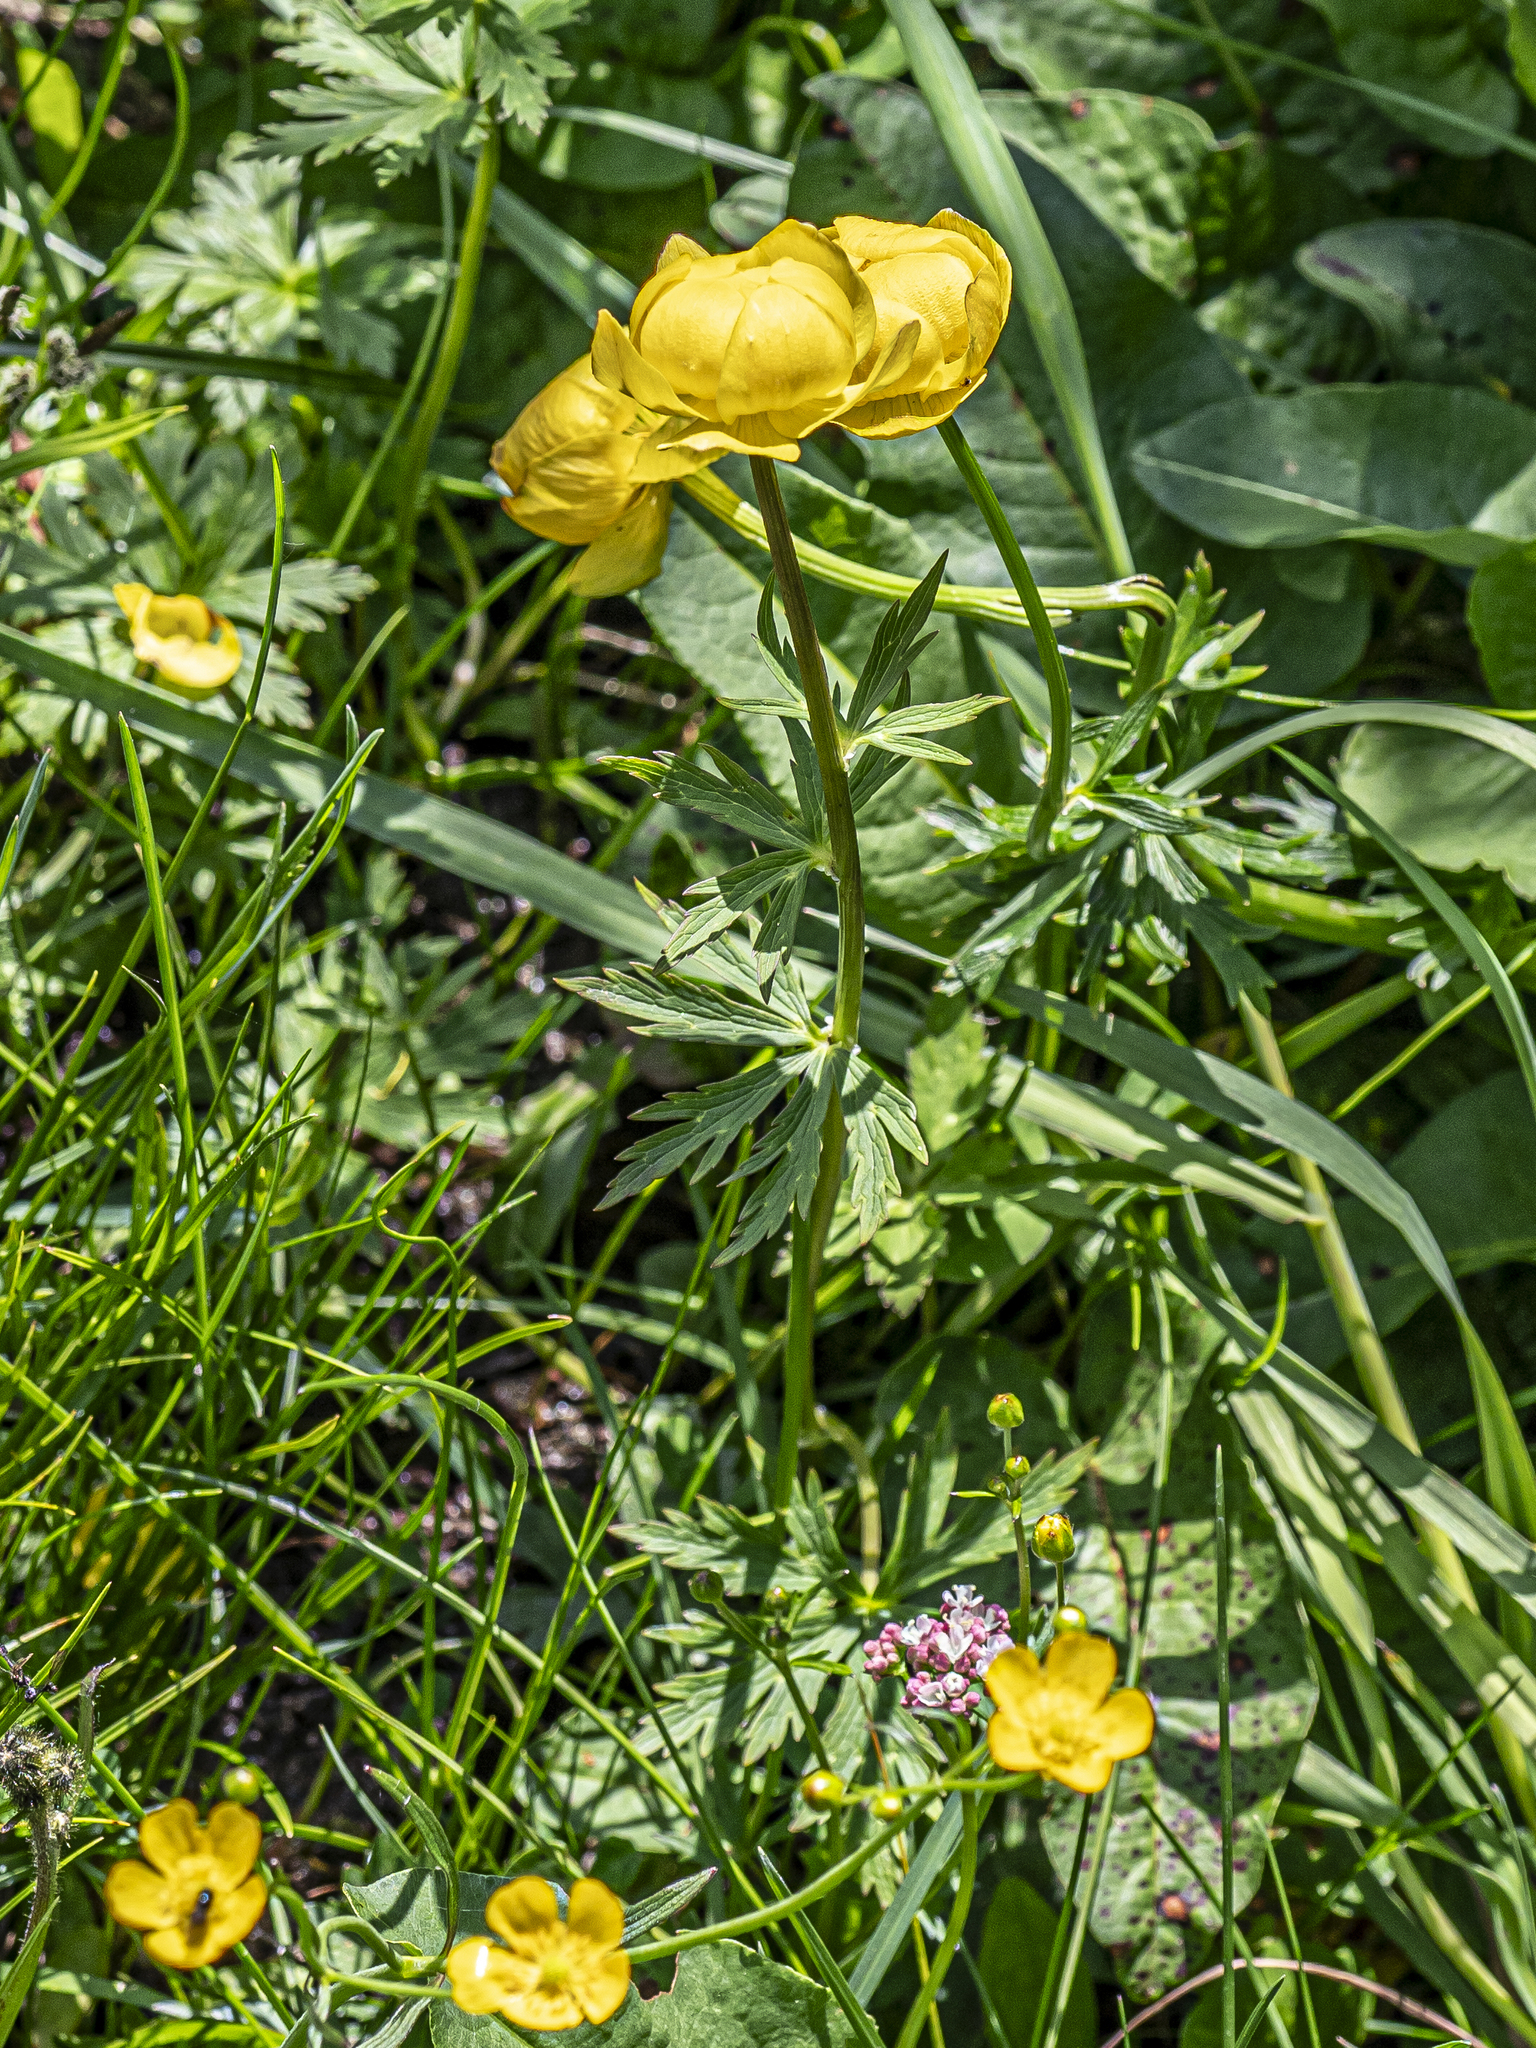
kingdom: Plantae
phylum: Tracheophyta
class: Magnoliopsida
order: Ranunculales
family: Ranunculaceae
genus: Trollius
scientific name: Trollius europaeus
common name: European globeflower
